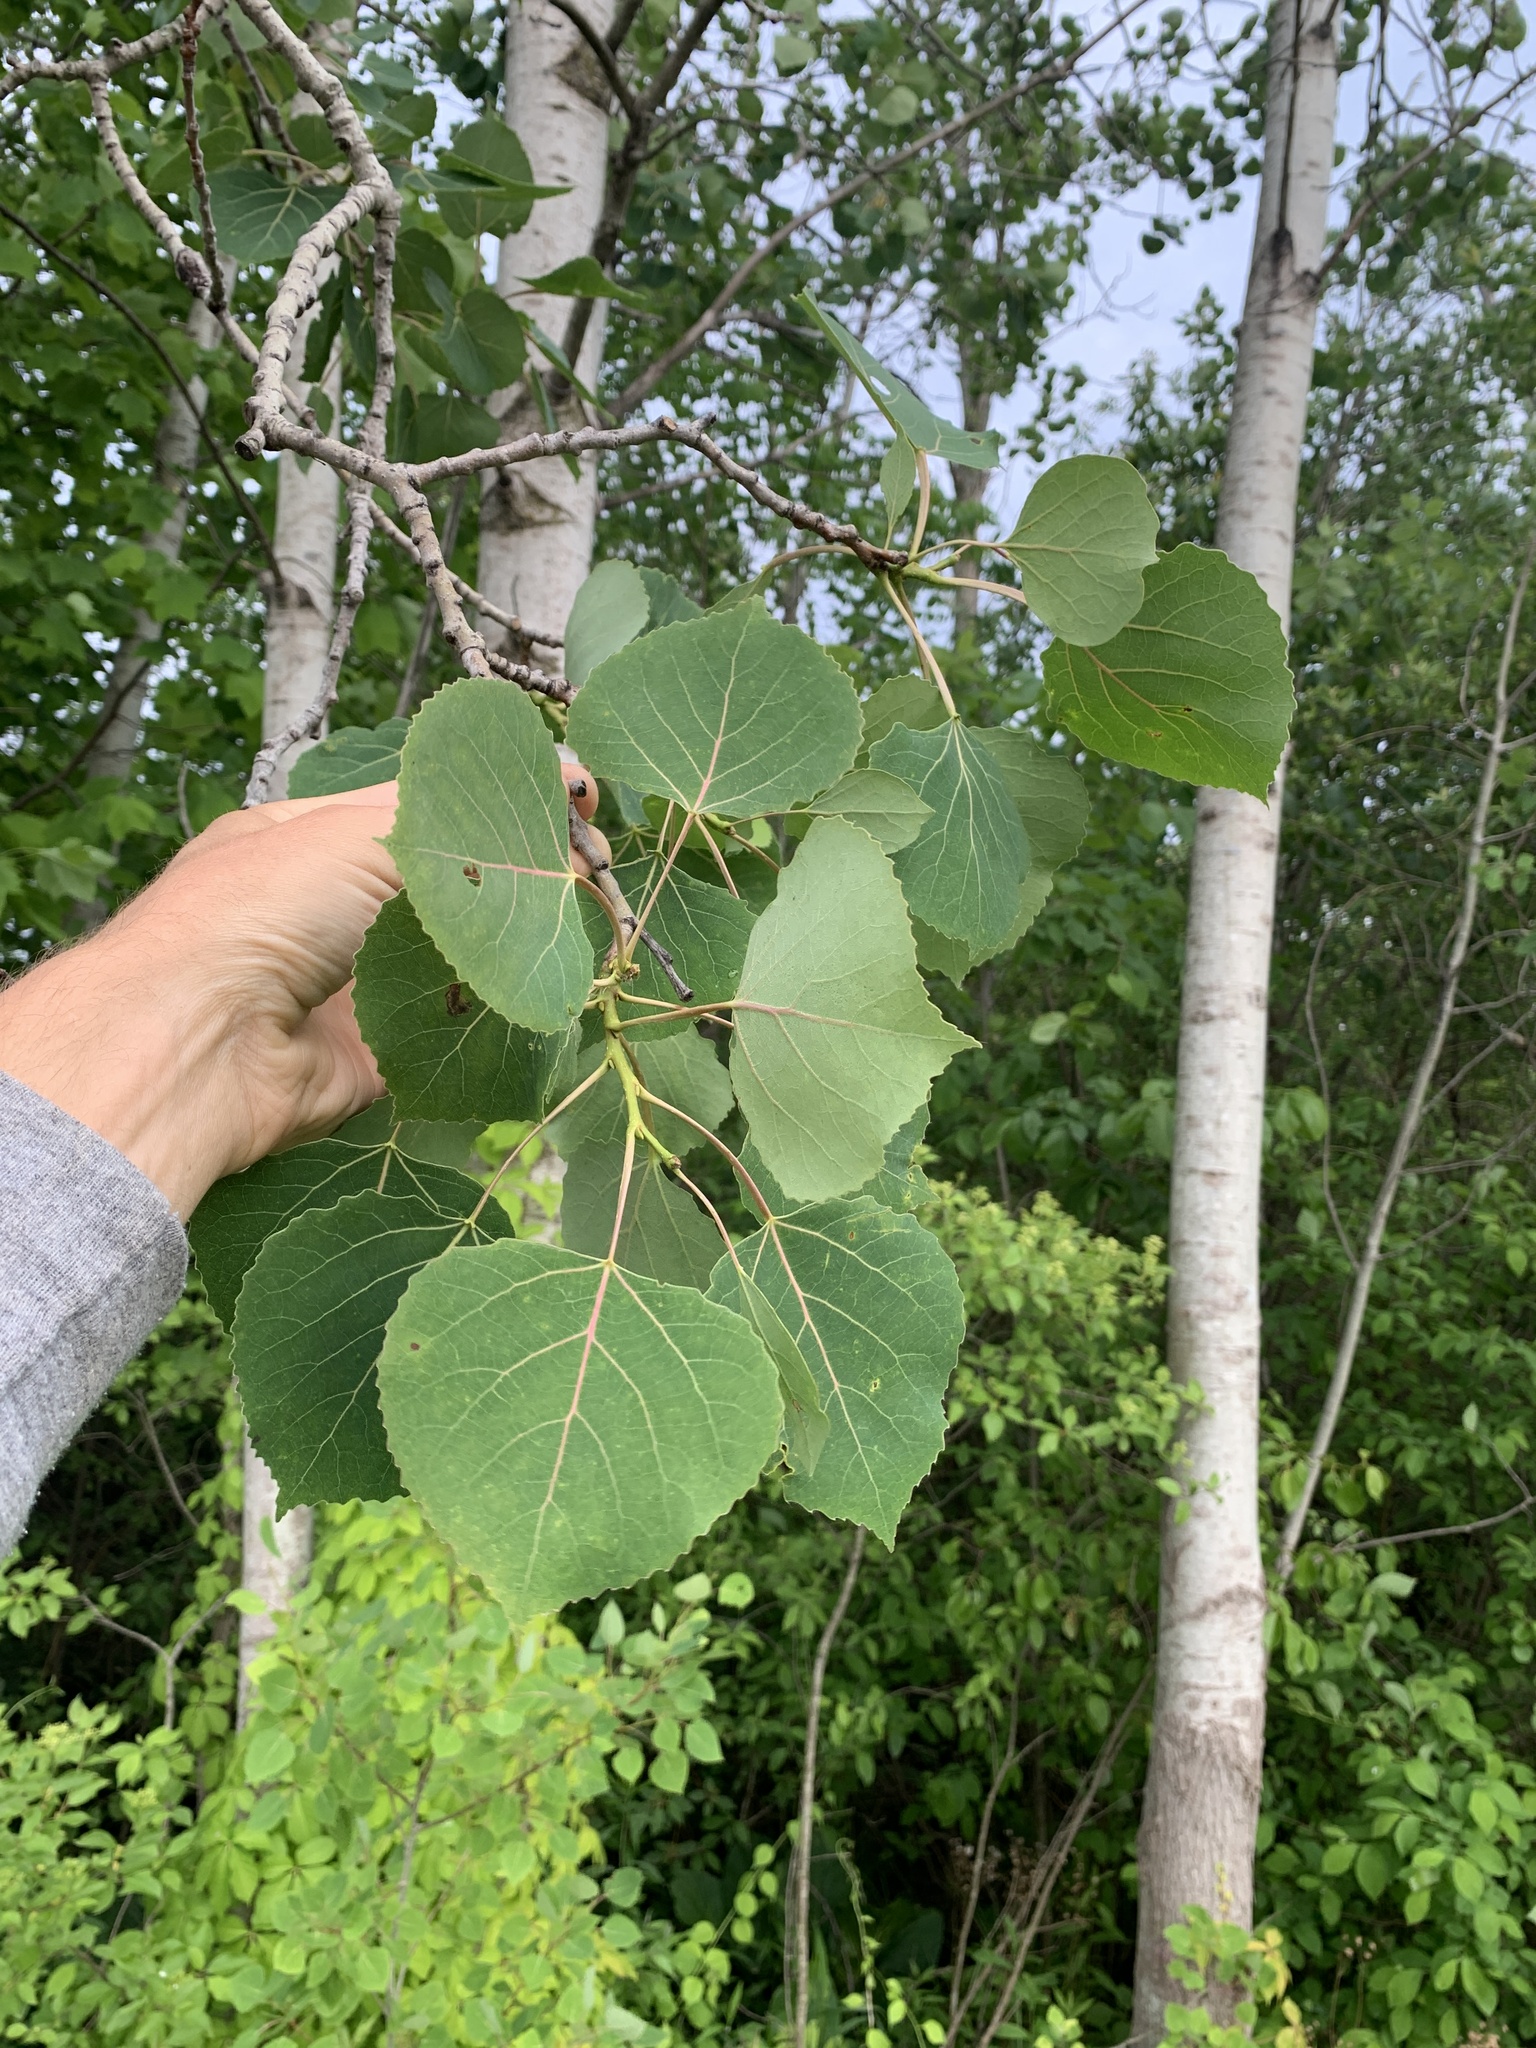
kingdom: Plantae
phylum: Tracheophyta
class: Magnoliopsida
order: Malpighiales
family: Salicaceae
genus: Populus
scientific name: Populus tremuloides
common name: Quaking aspen
